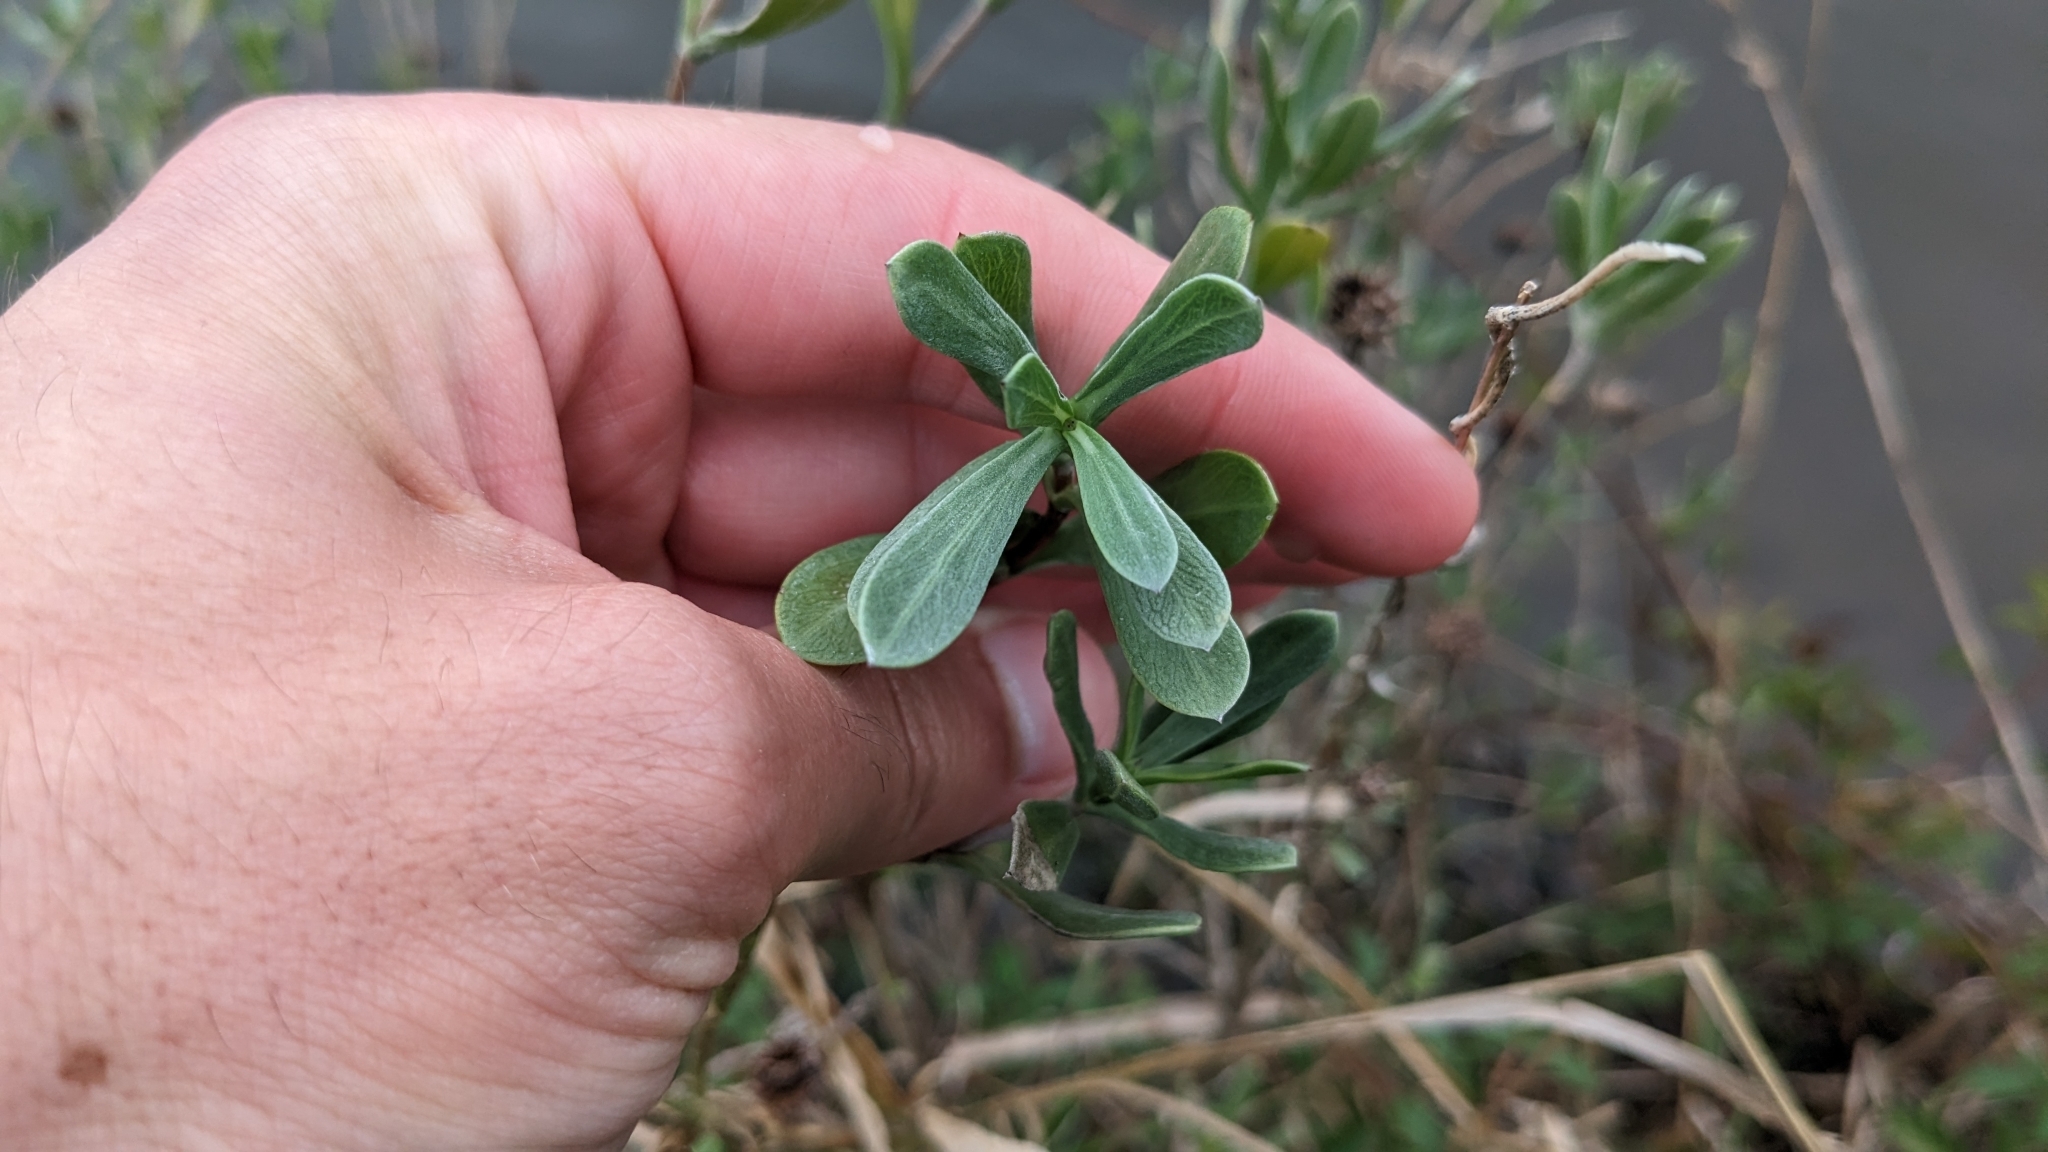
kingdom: Plantae
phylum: Tracheophyta
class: Magnoliopsida
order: Asterales
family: Asteraceae
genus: Borrichia
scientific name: Borrichia frutescens
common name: Sea oxeye
